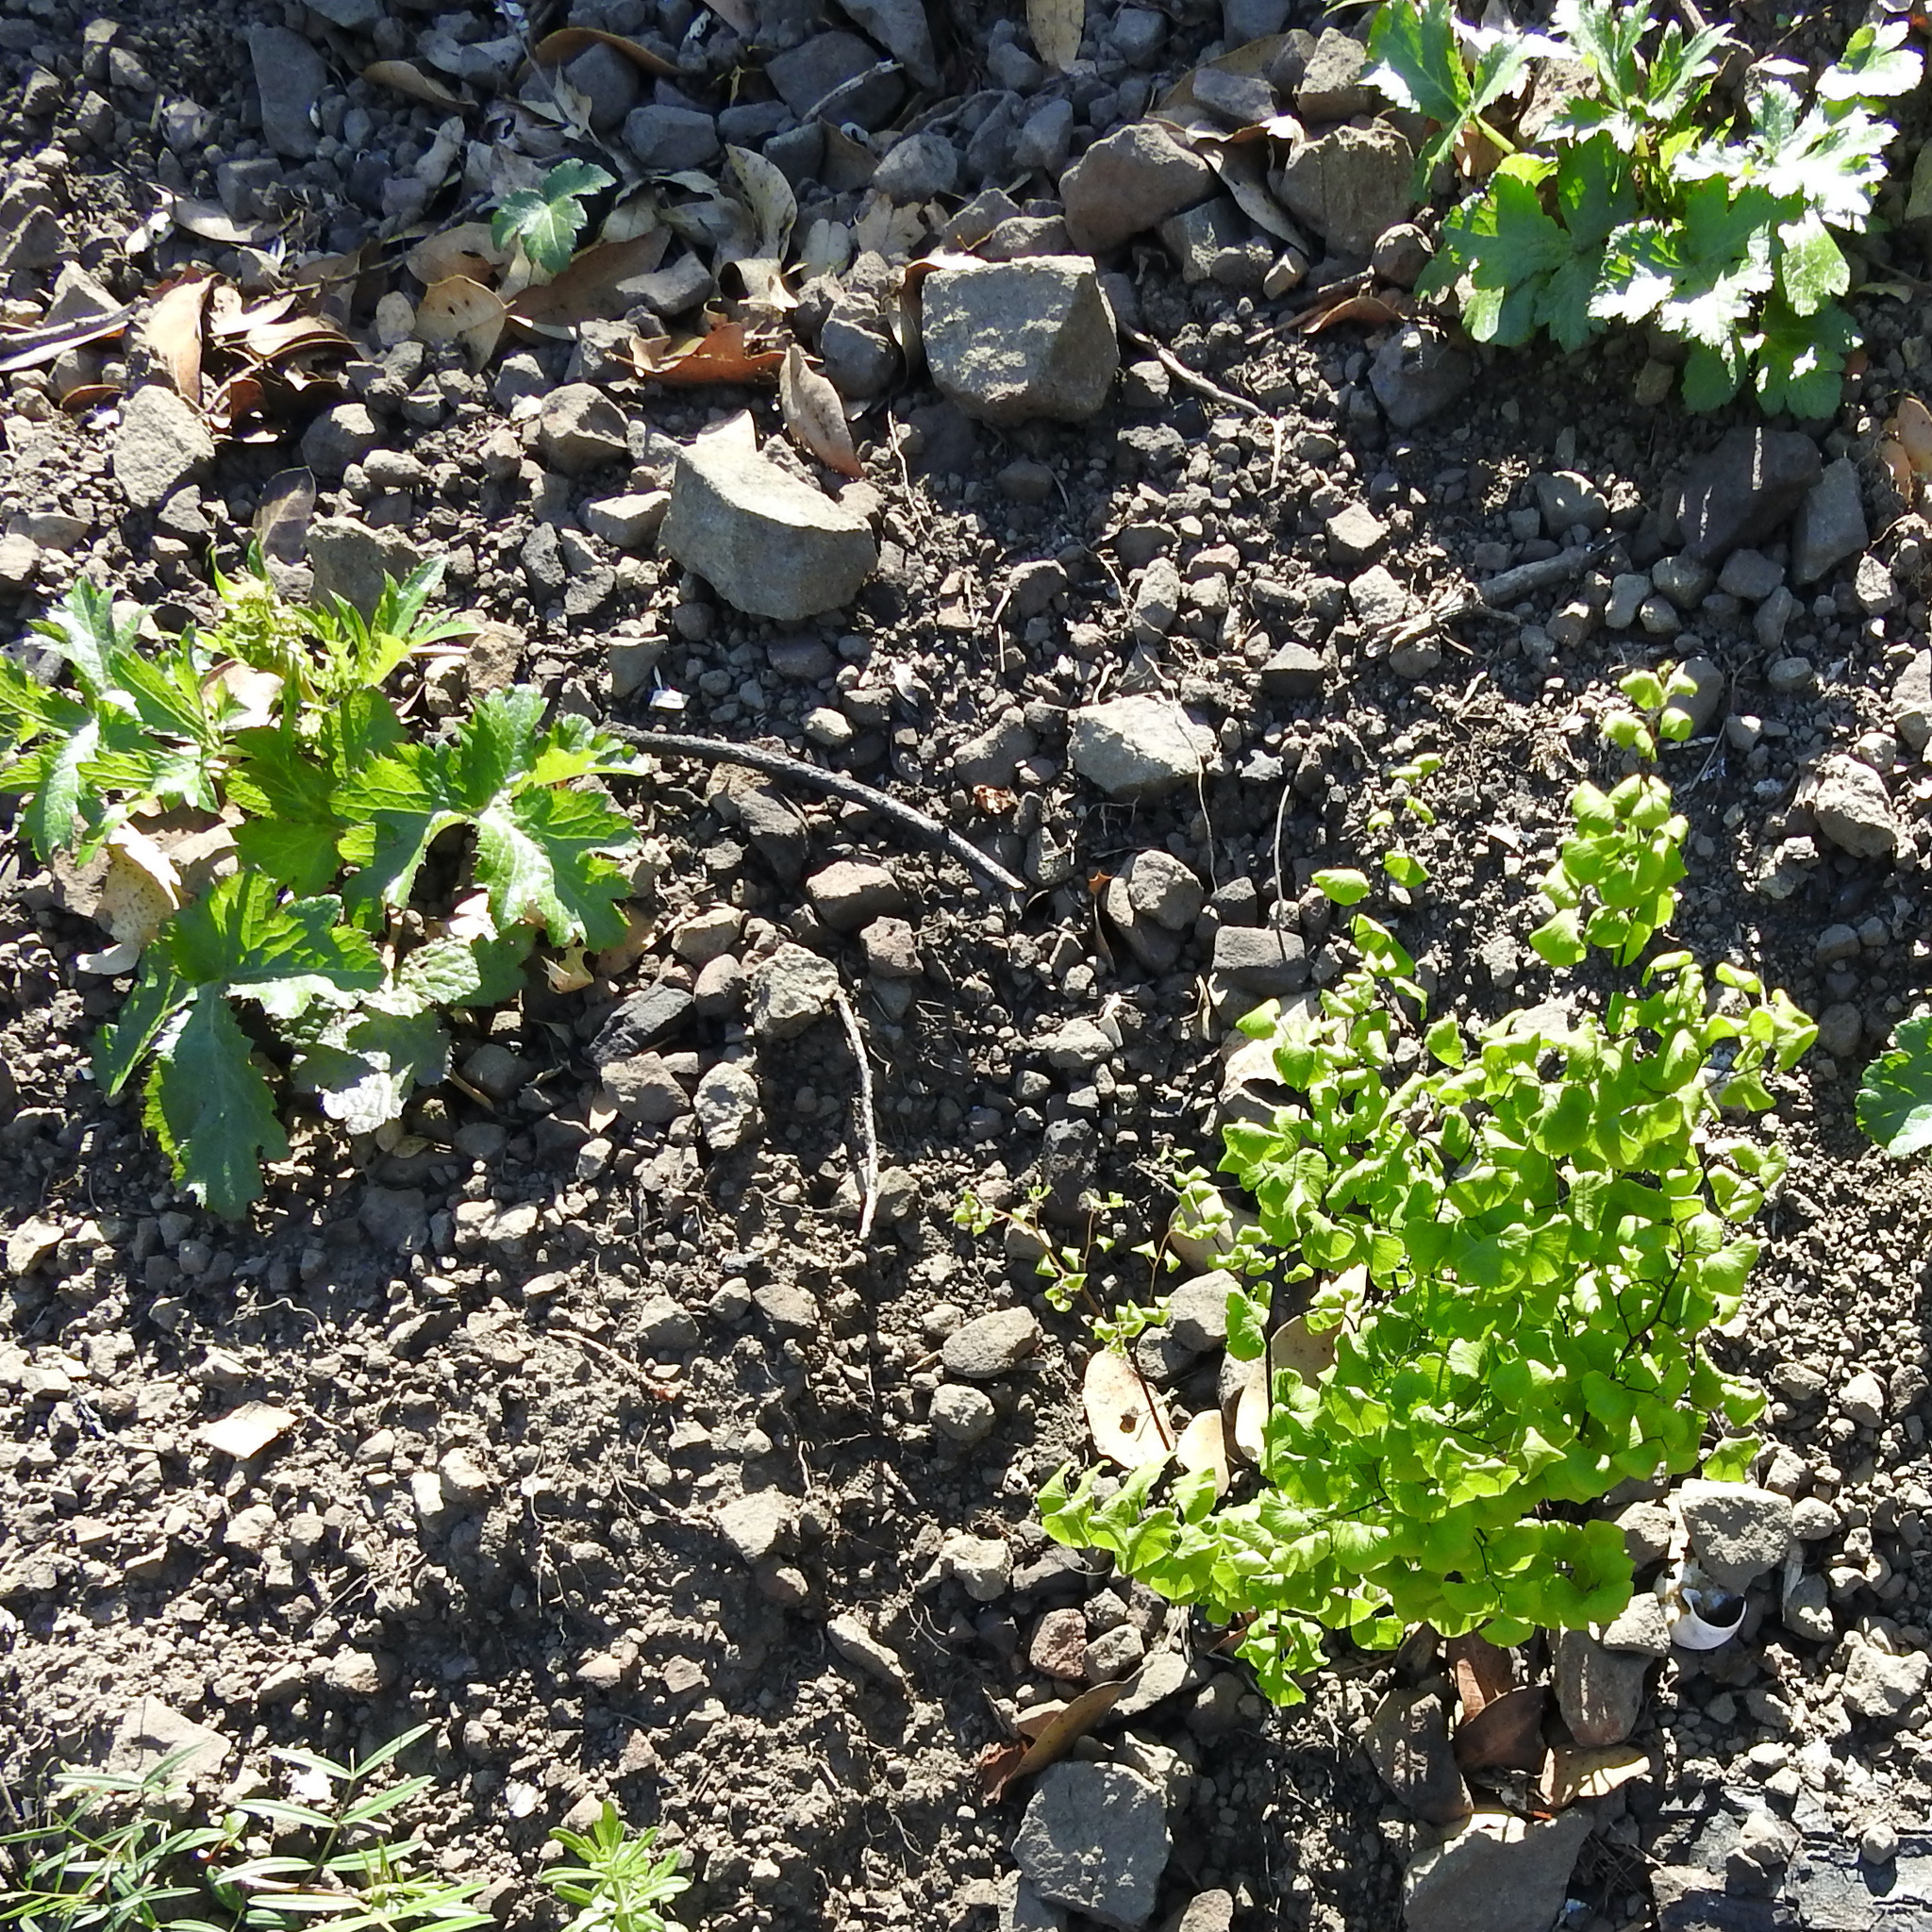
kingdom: Plantae
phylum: Tracheophyta
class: Polypodiopsida
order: Polypodiales
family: Pteridaceae
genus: Adiantum
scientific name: Adiantum jordanii
